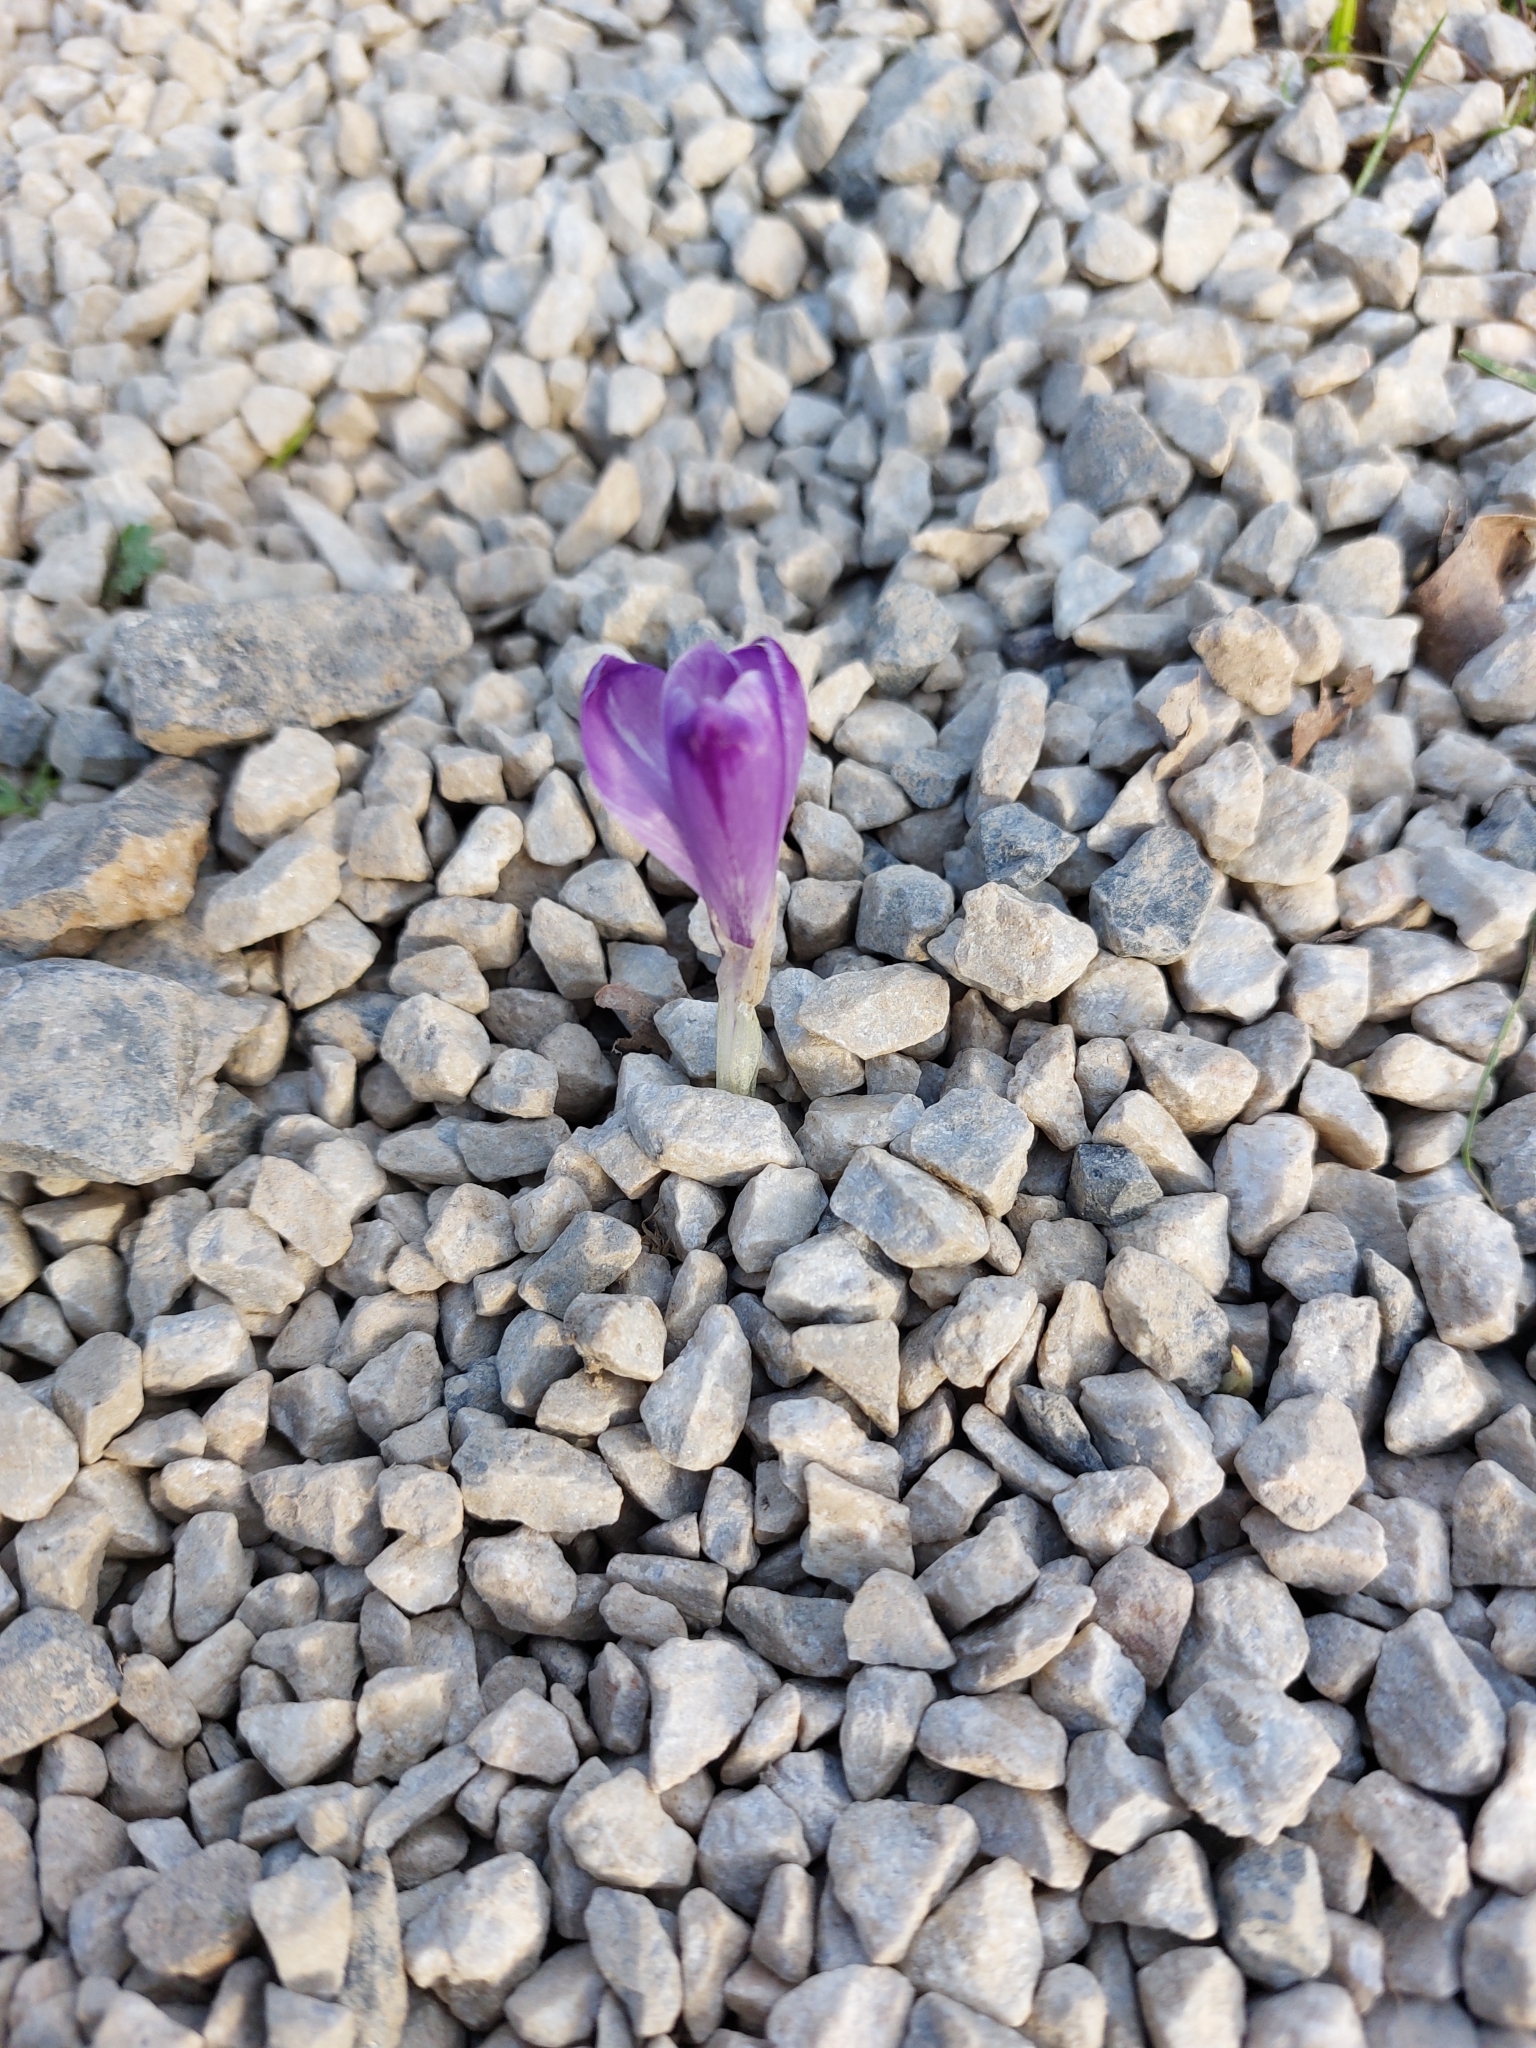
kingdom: Plantae
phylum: Tracheophyta
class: Liliopsida
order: Asparagales
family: Iridaceae
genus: Crocus
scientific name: Crocus heuffelianus
